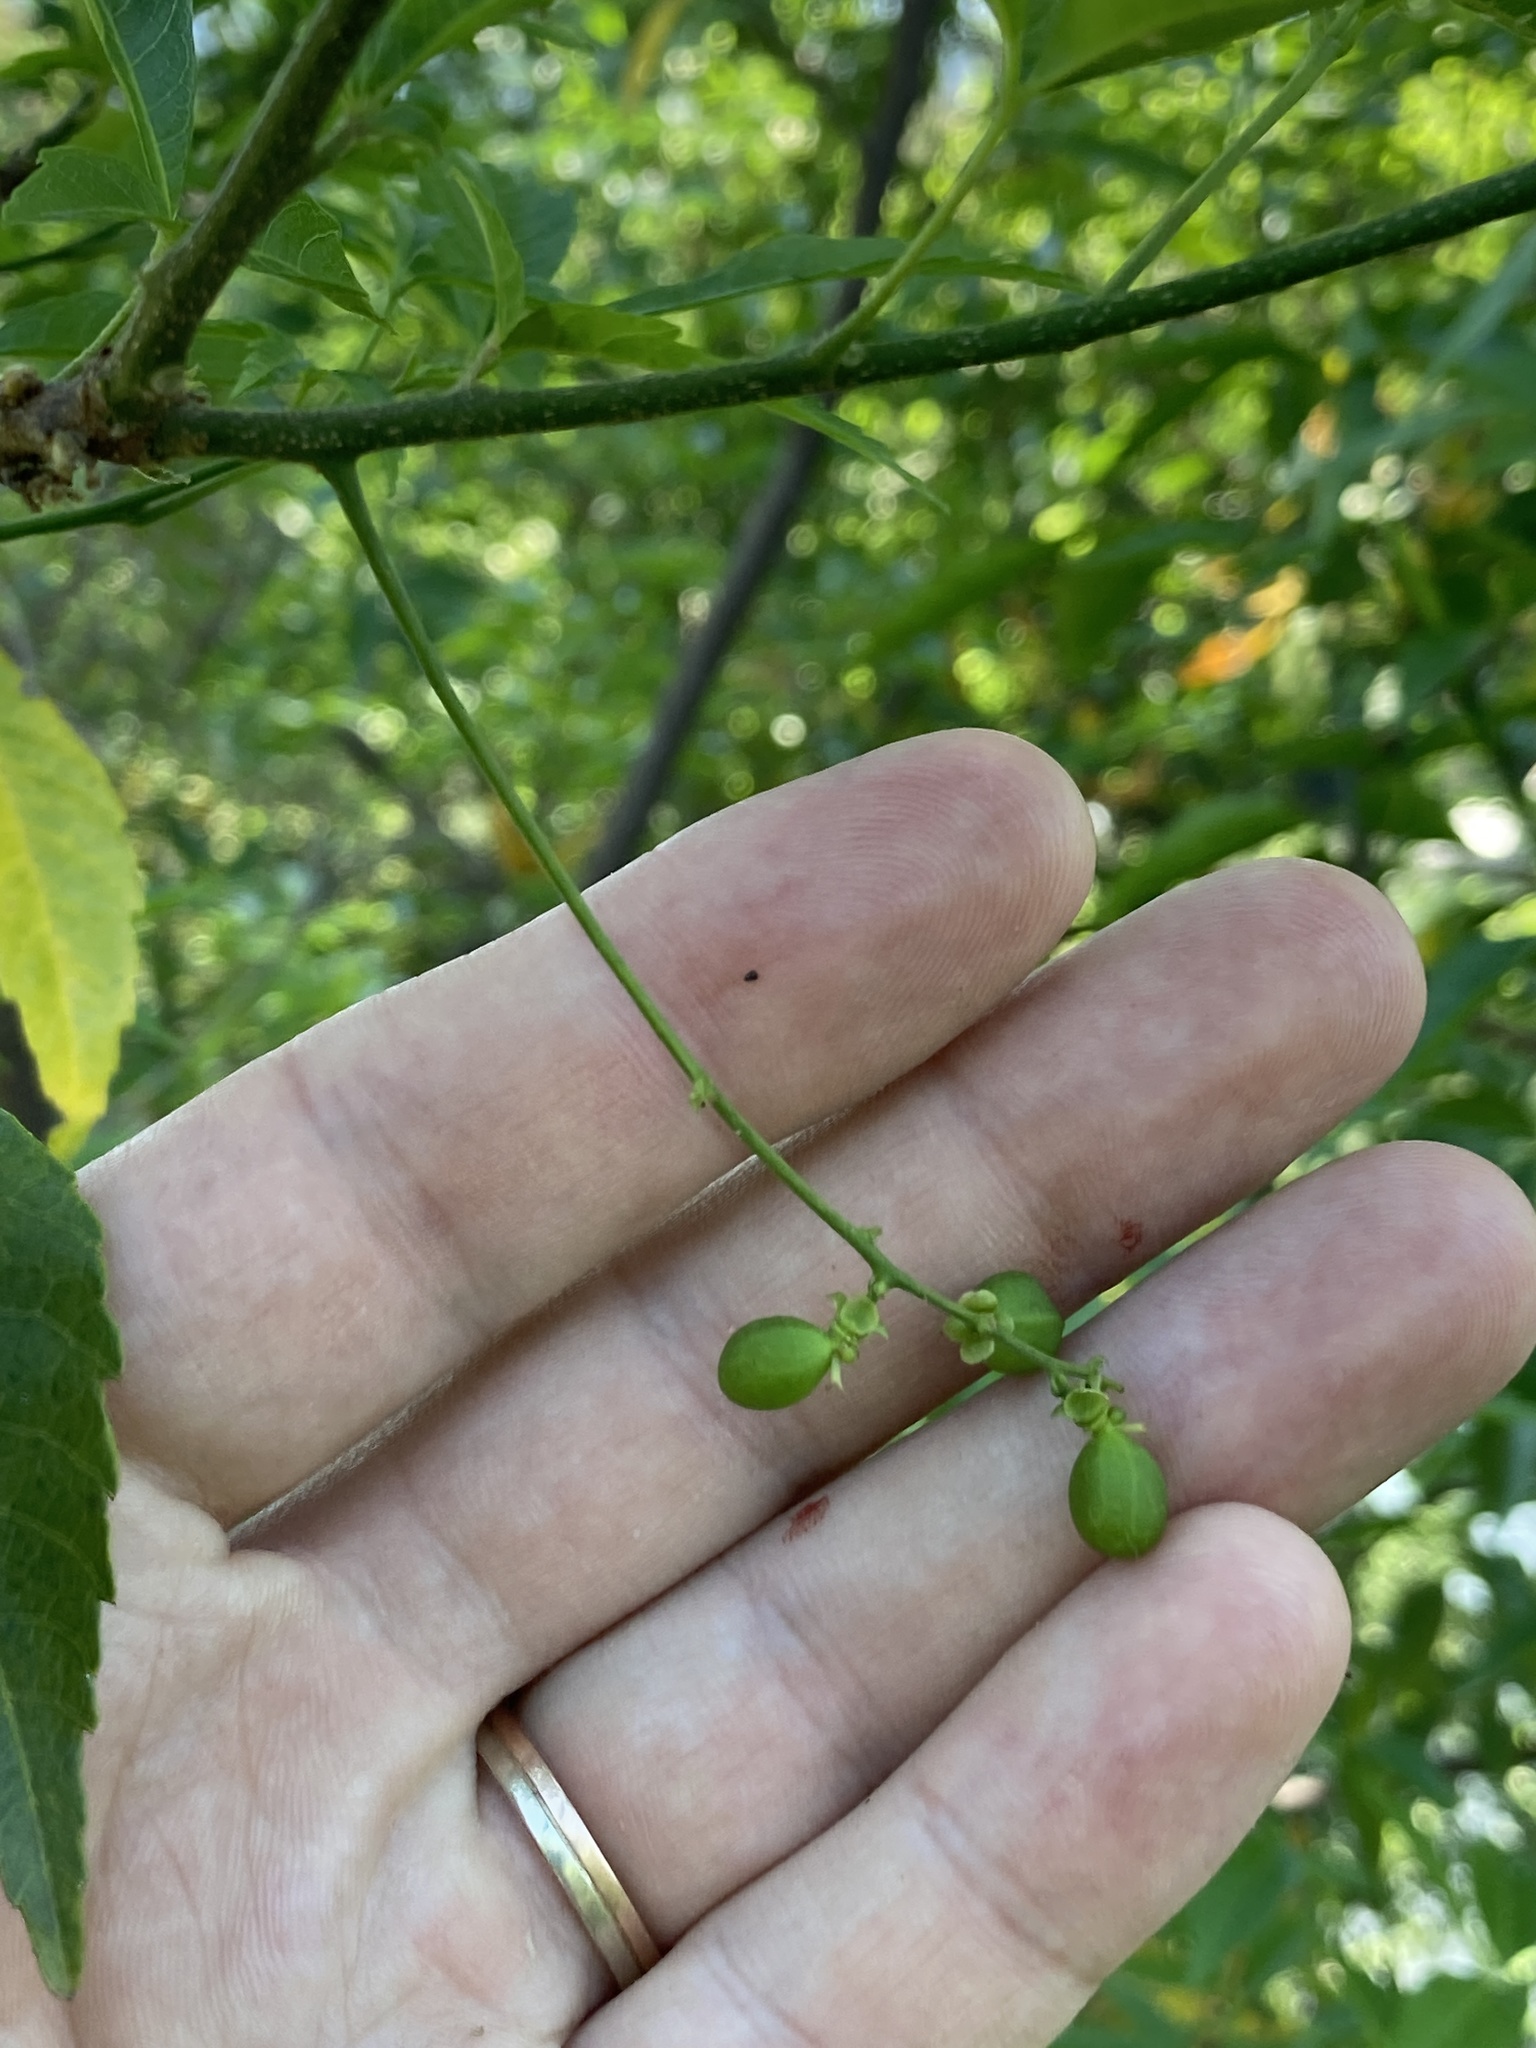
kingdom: Plantae
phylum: Tracheophyta
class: Magnoliopsida
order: Sapindales
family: Sapindaceae
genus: Allophylus
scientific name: Allophylus edulis
